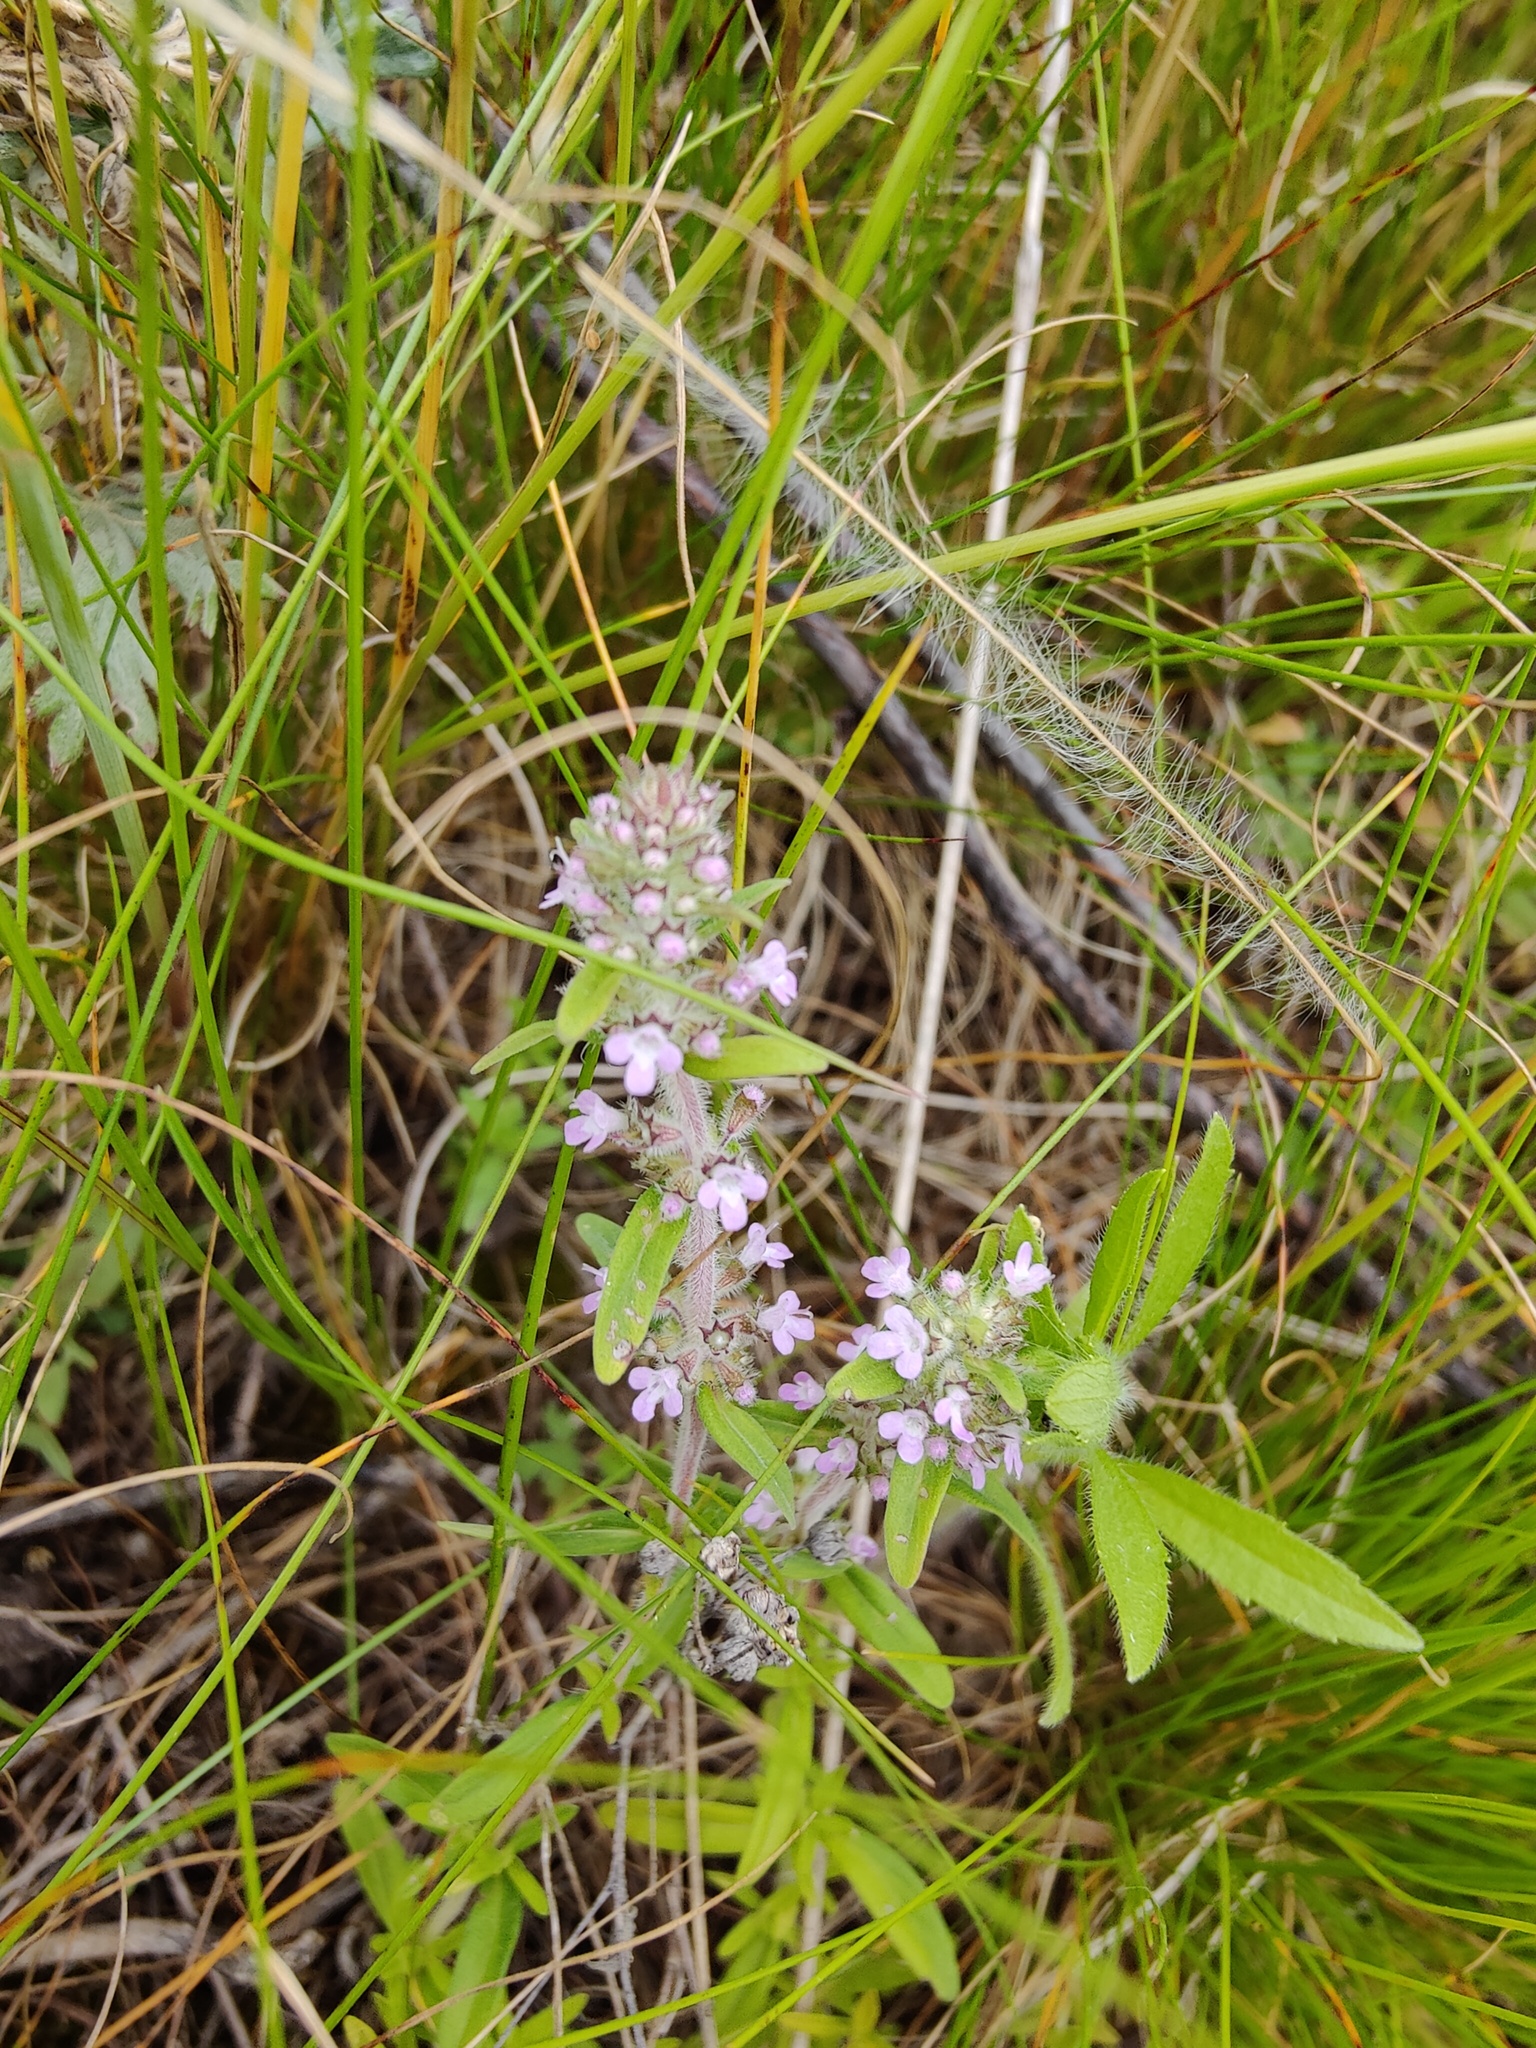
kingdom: Plantae
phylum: Tracheophyta
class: Magnoliopsida
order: Lamiales
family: Lamiaceae
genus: Thymus
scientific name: Thymus pannonicus
